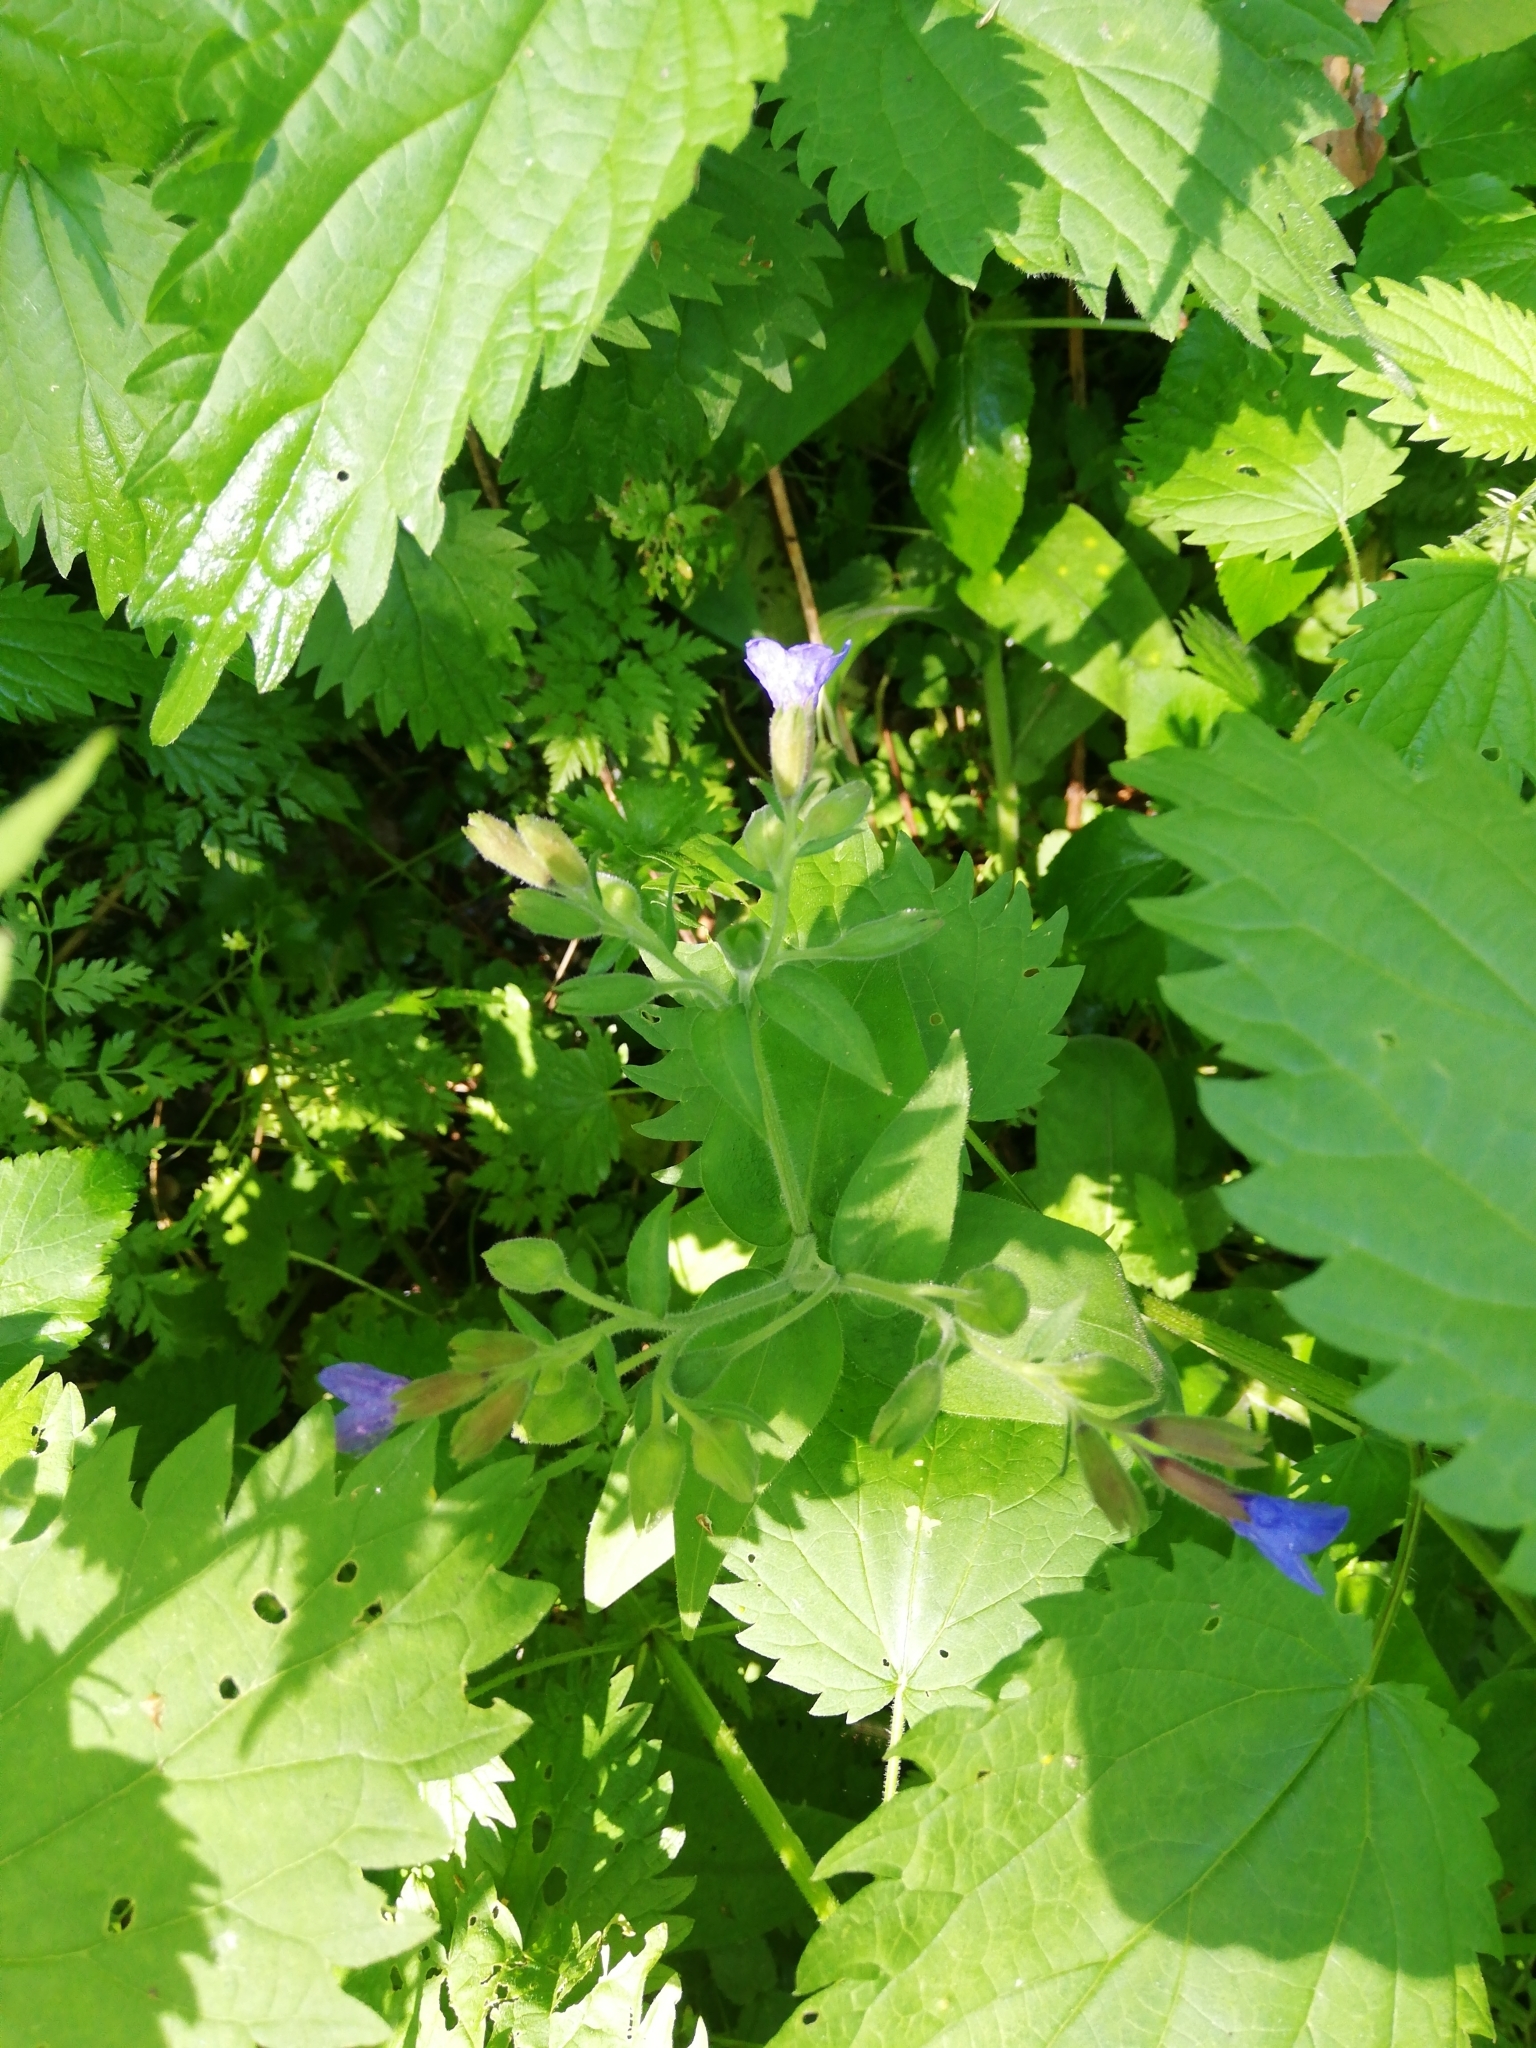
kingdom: Plantae
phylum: Tracheophyta
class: Magnoliopsida
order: Boraginales
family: Boraginaceae
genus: Pulmonaria
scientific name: Pulmonaria mollis
